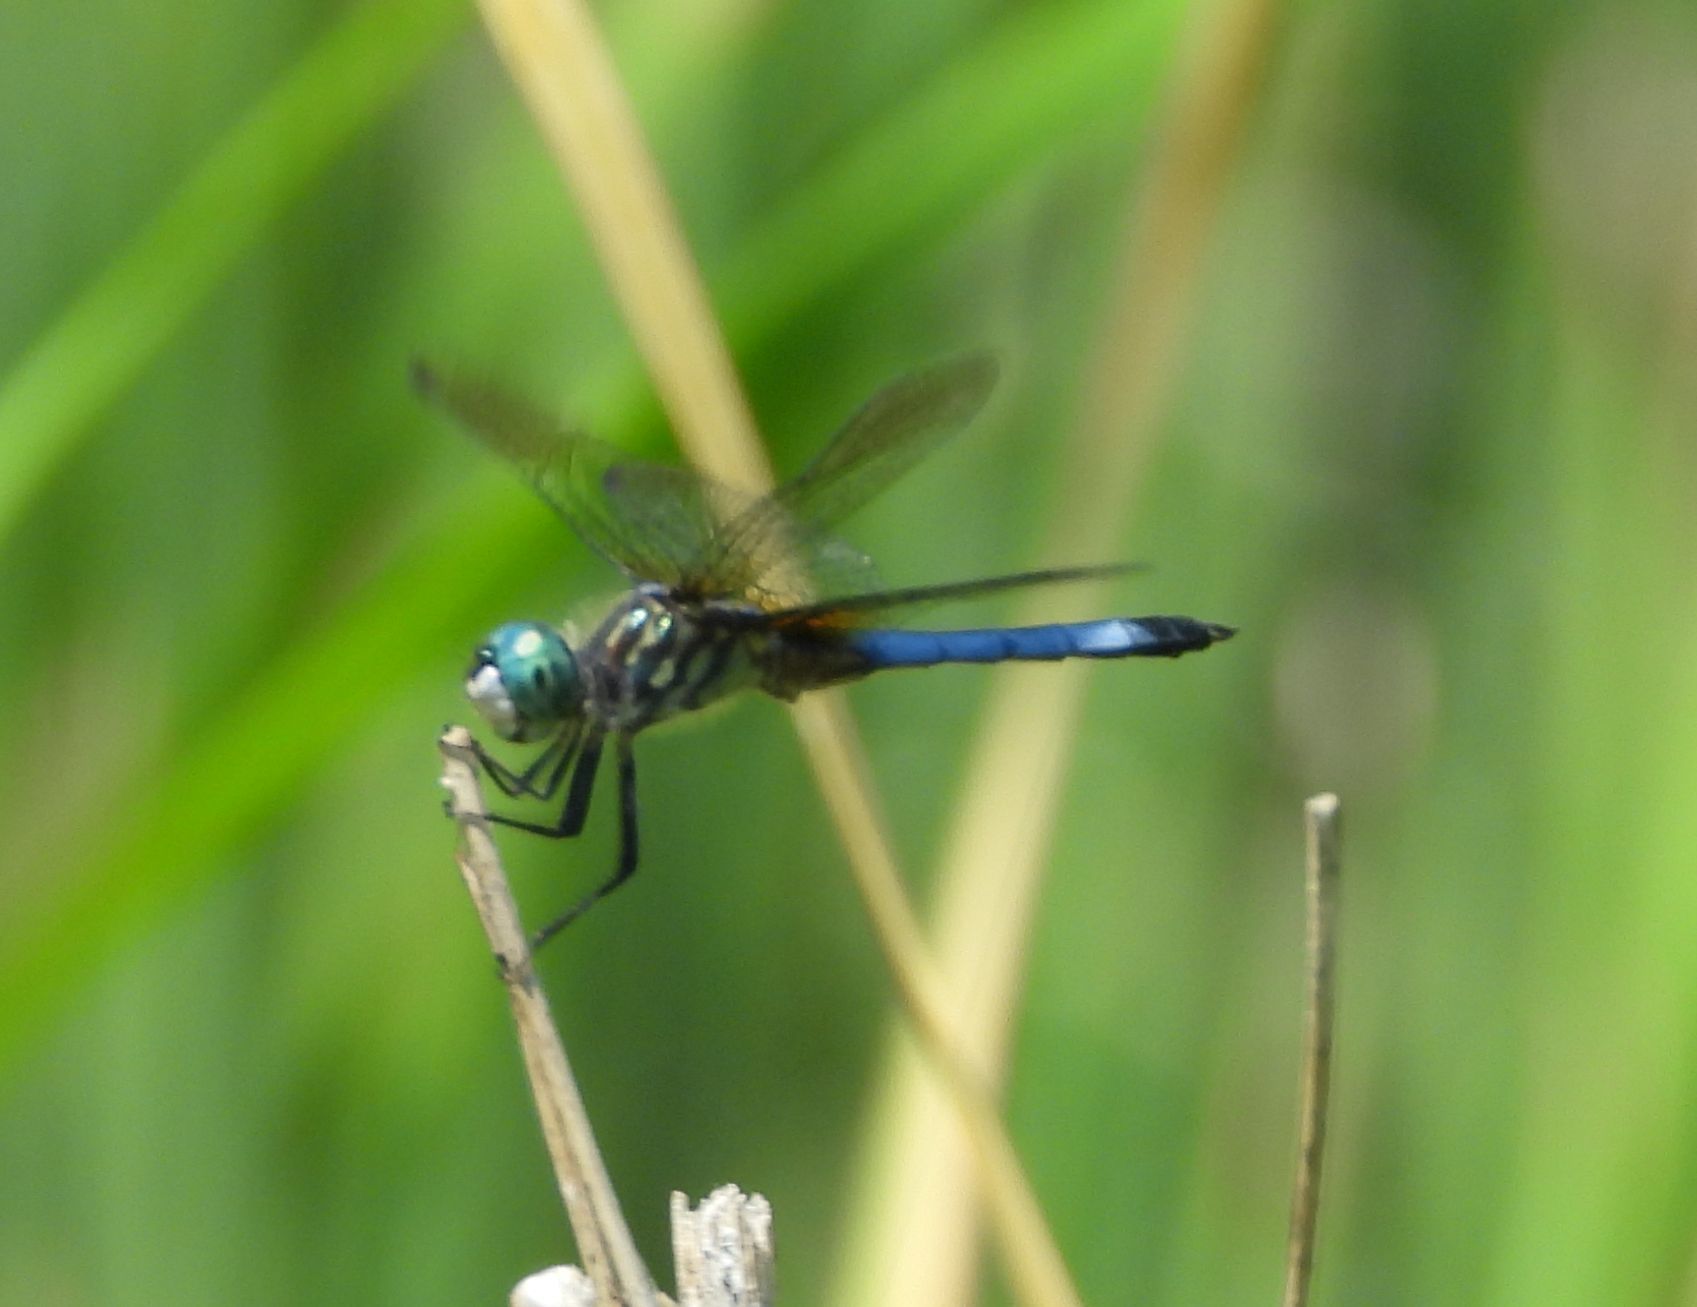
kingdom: Animalia
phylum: Arthropoda
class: Insecta
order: Odonata
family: Libellulidae
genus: Pachydiplax
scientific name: Pachydiplax longipennis
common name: Blue dasher
